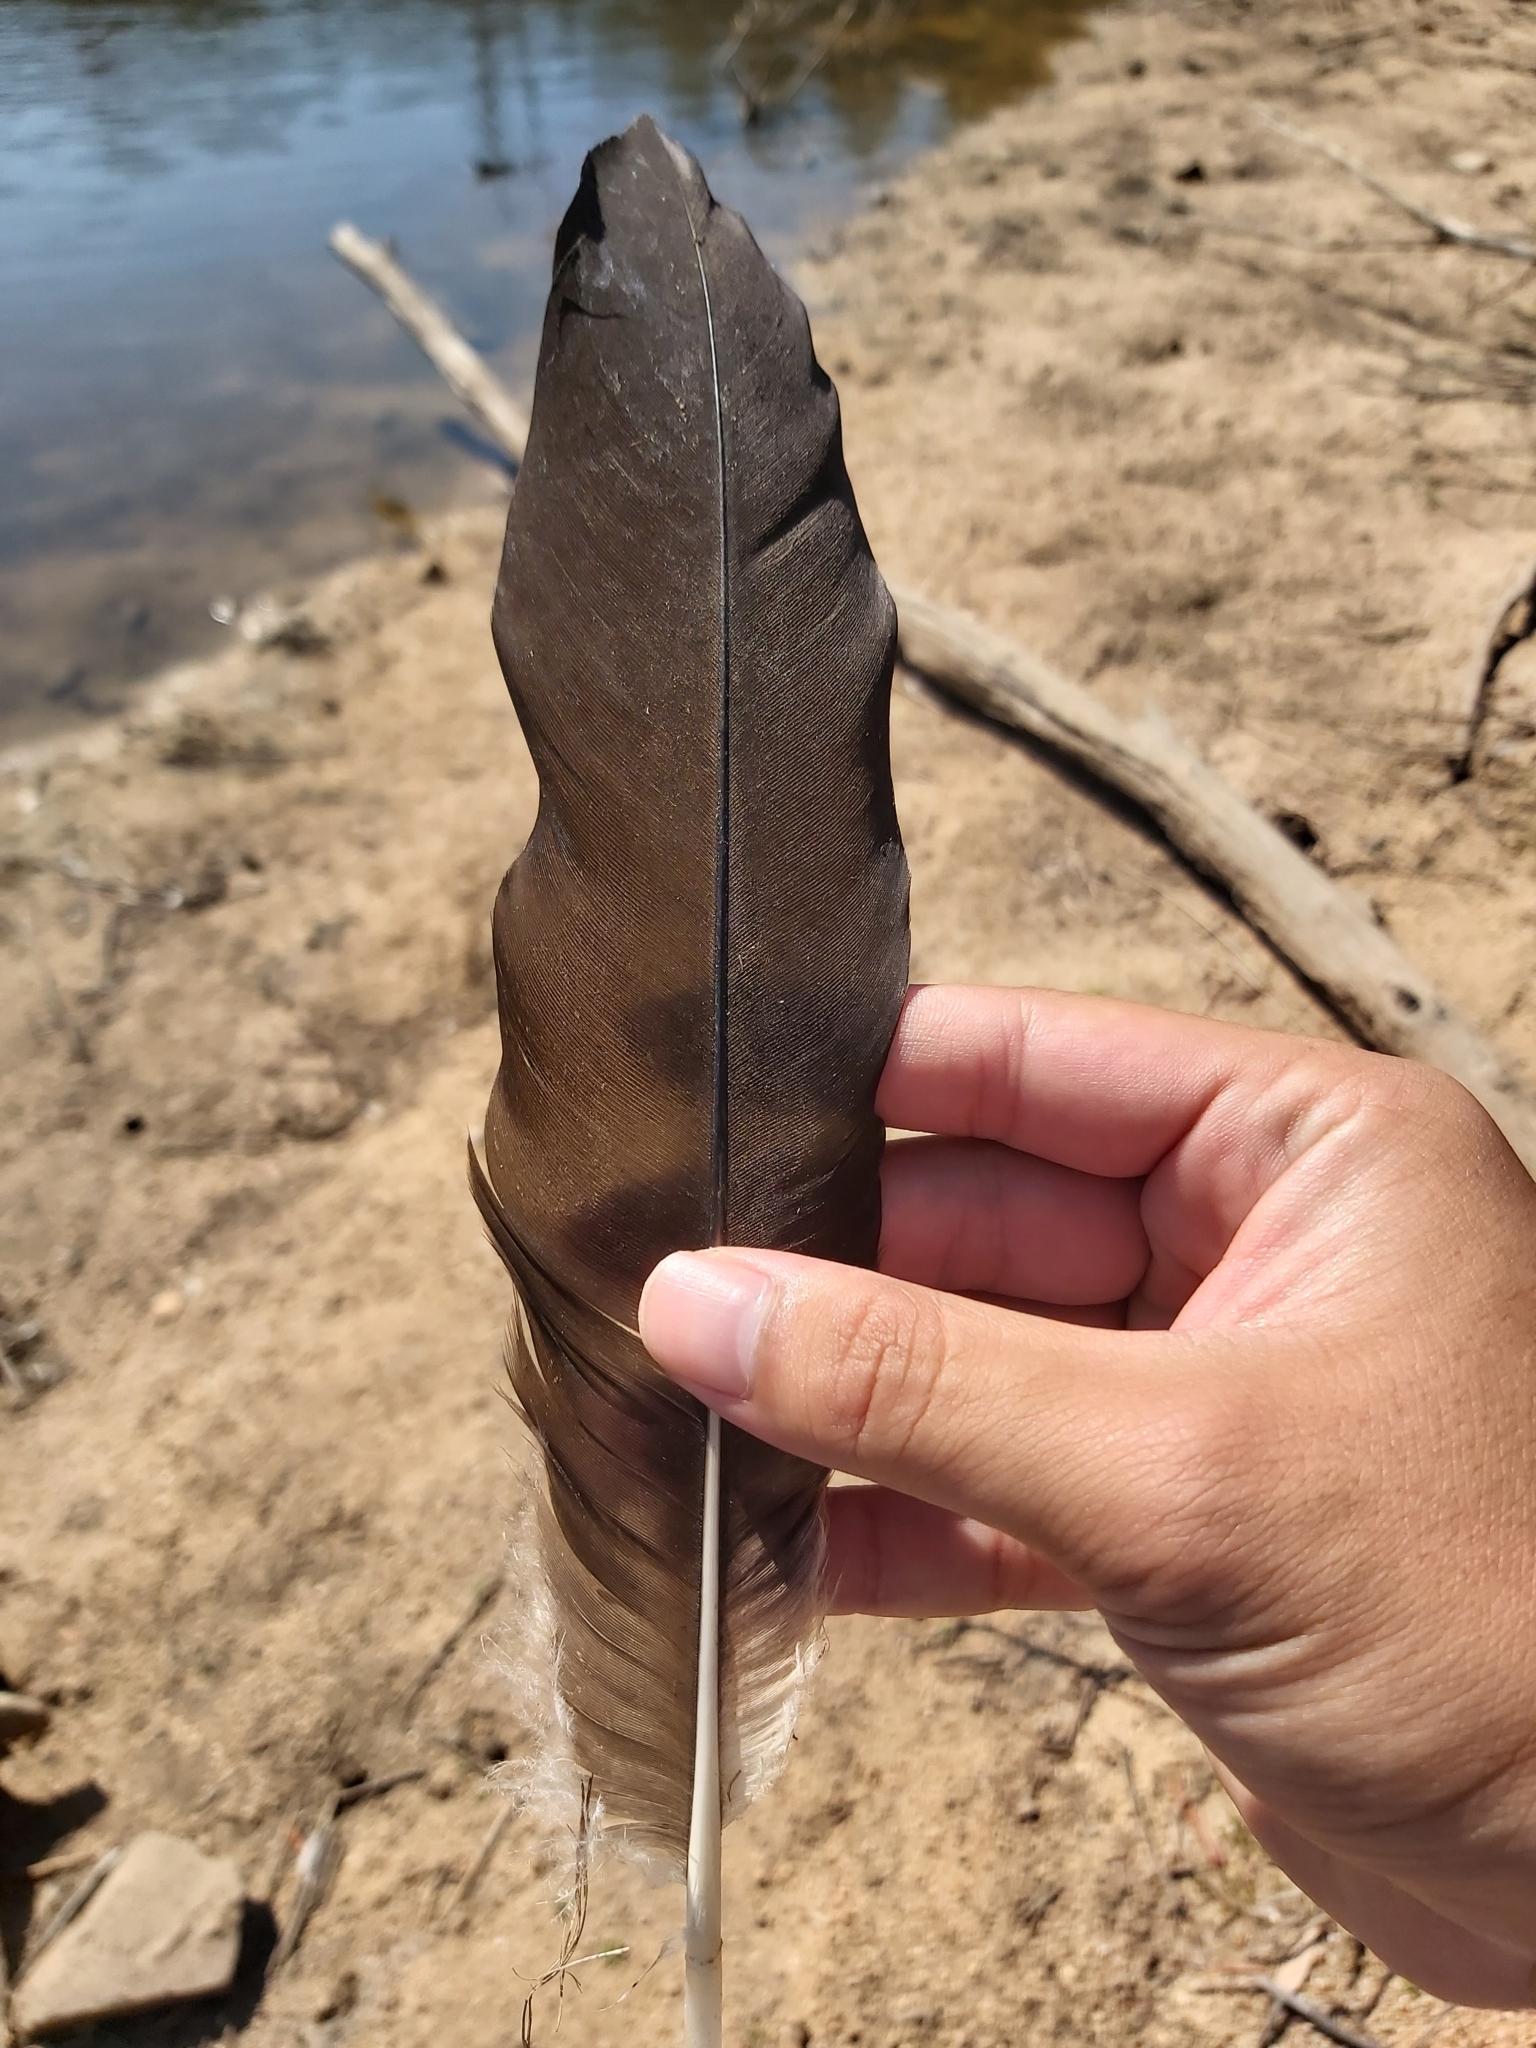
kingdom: Animalia
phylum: Chordata
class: Aves
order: Anseriformes
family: Anatidae
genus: Cygnus
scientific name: Cygnus atratus
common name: Black swan
